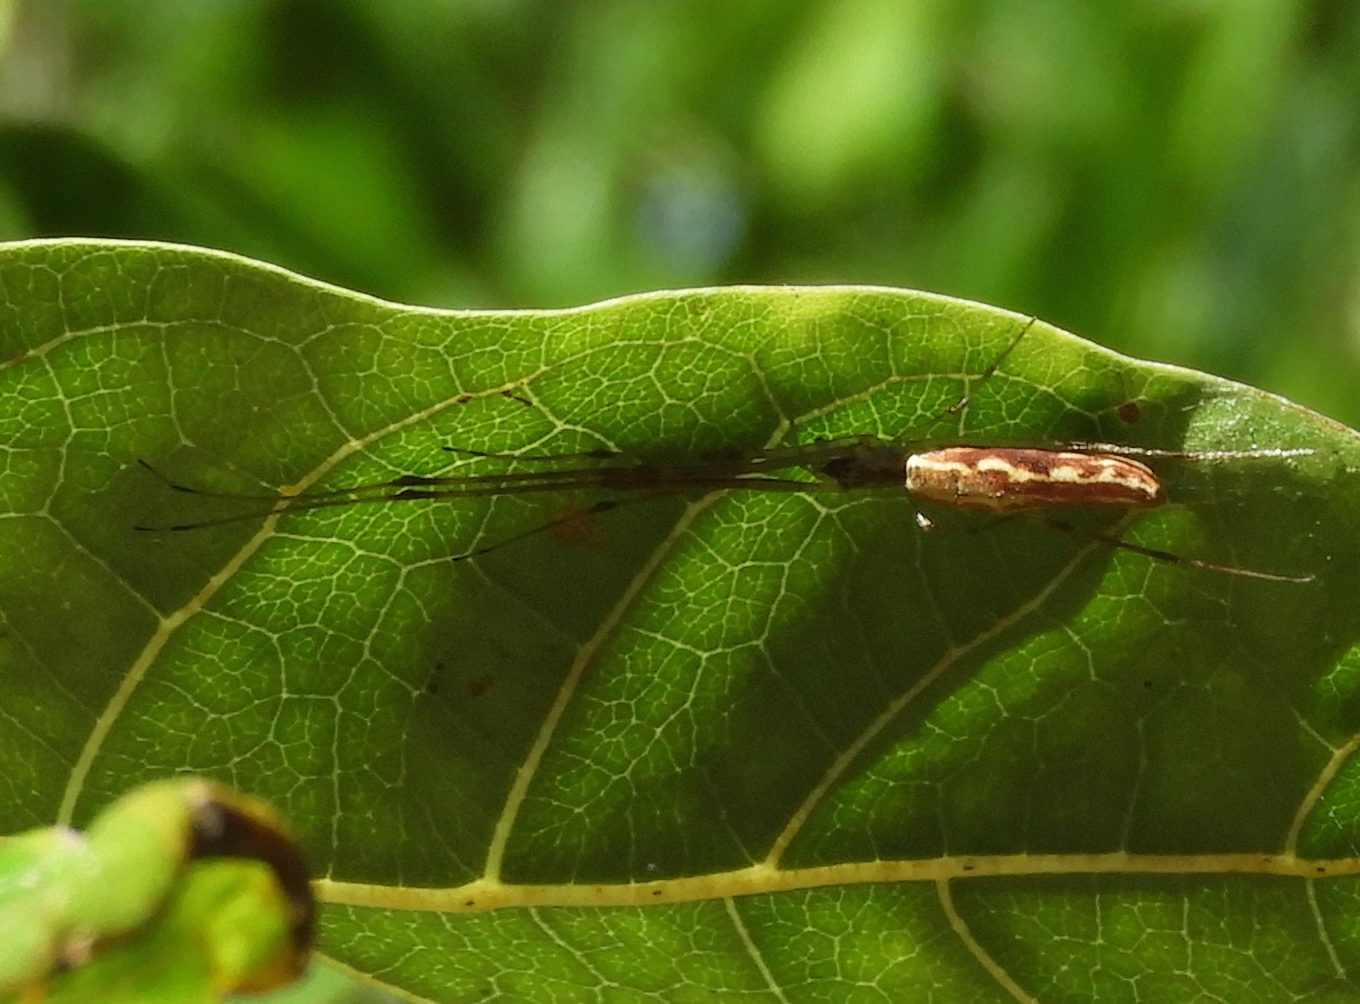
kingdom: Animalia
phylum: Arthropoda
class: Arachnida
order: Araneae
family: Tetragnathidae
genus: Tetragnatha
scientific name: Tetragnatha
